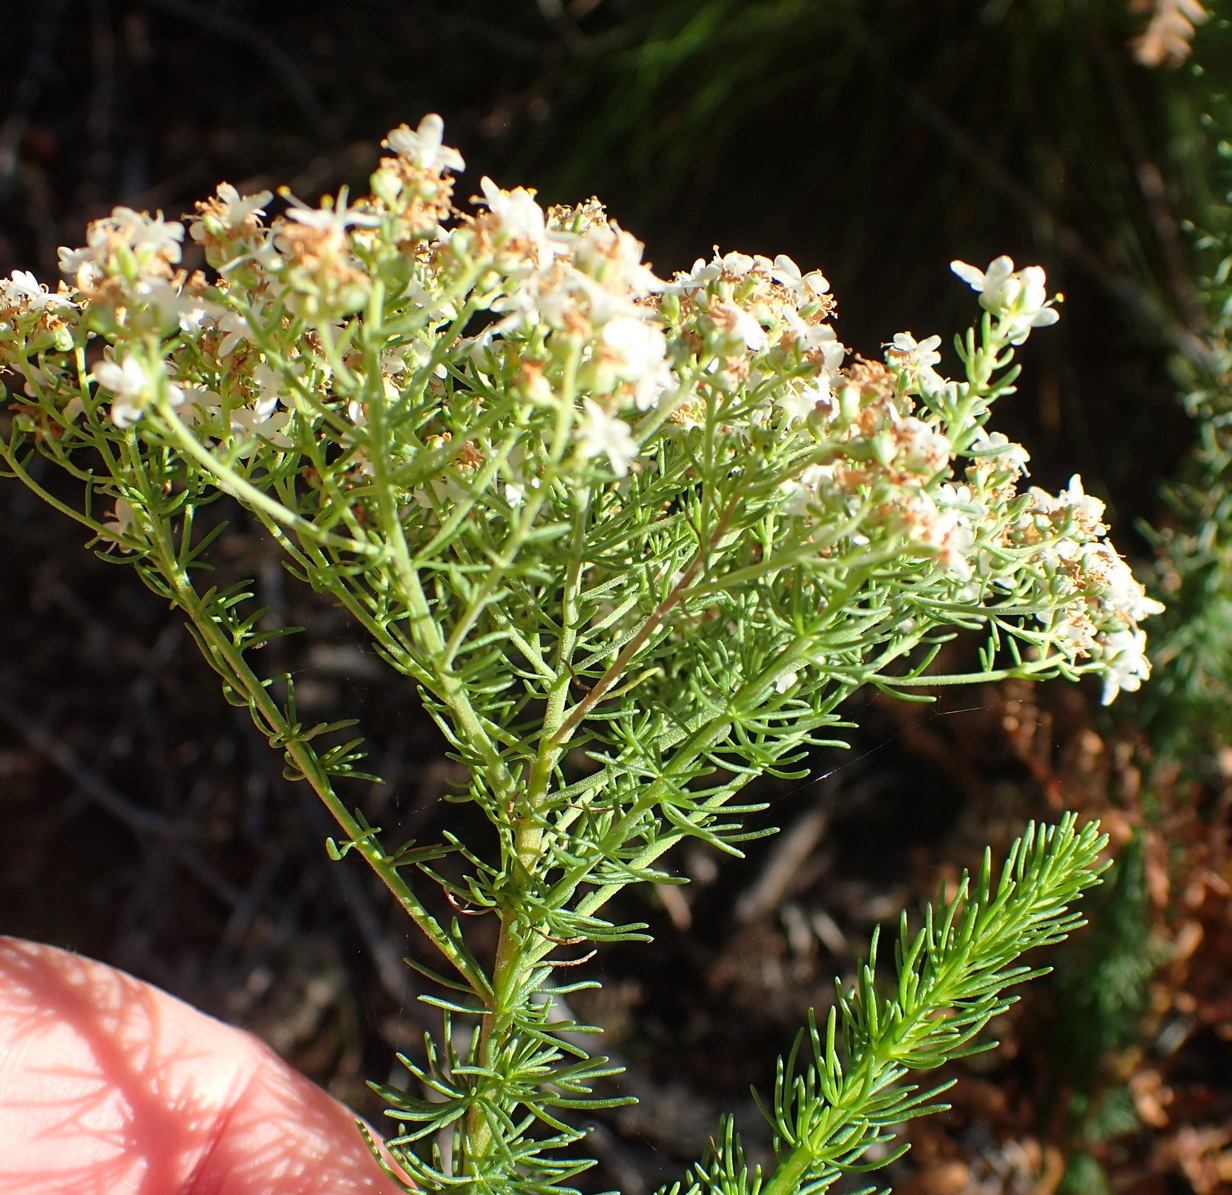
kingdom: Plantae
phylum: Tracheophyta
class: Magnoliopsida
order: Lamiales
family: Scrophulariaceae
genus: Selago
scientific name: Selago corymbosa
